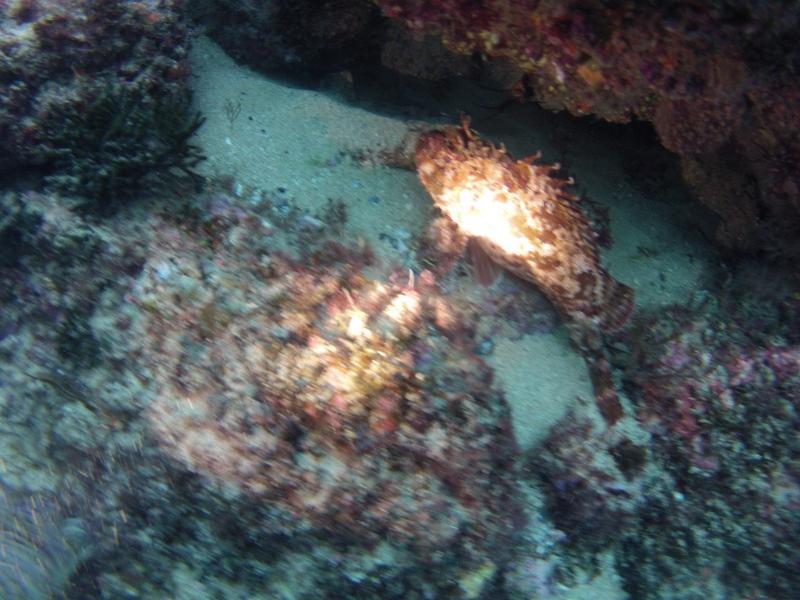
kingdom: Animalia
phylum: Chordata
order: Scorpaeniformes
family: Scorpaenidae
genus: Scorpaena
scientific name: Scorpaena porcus
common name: Black scorpionfish
